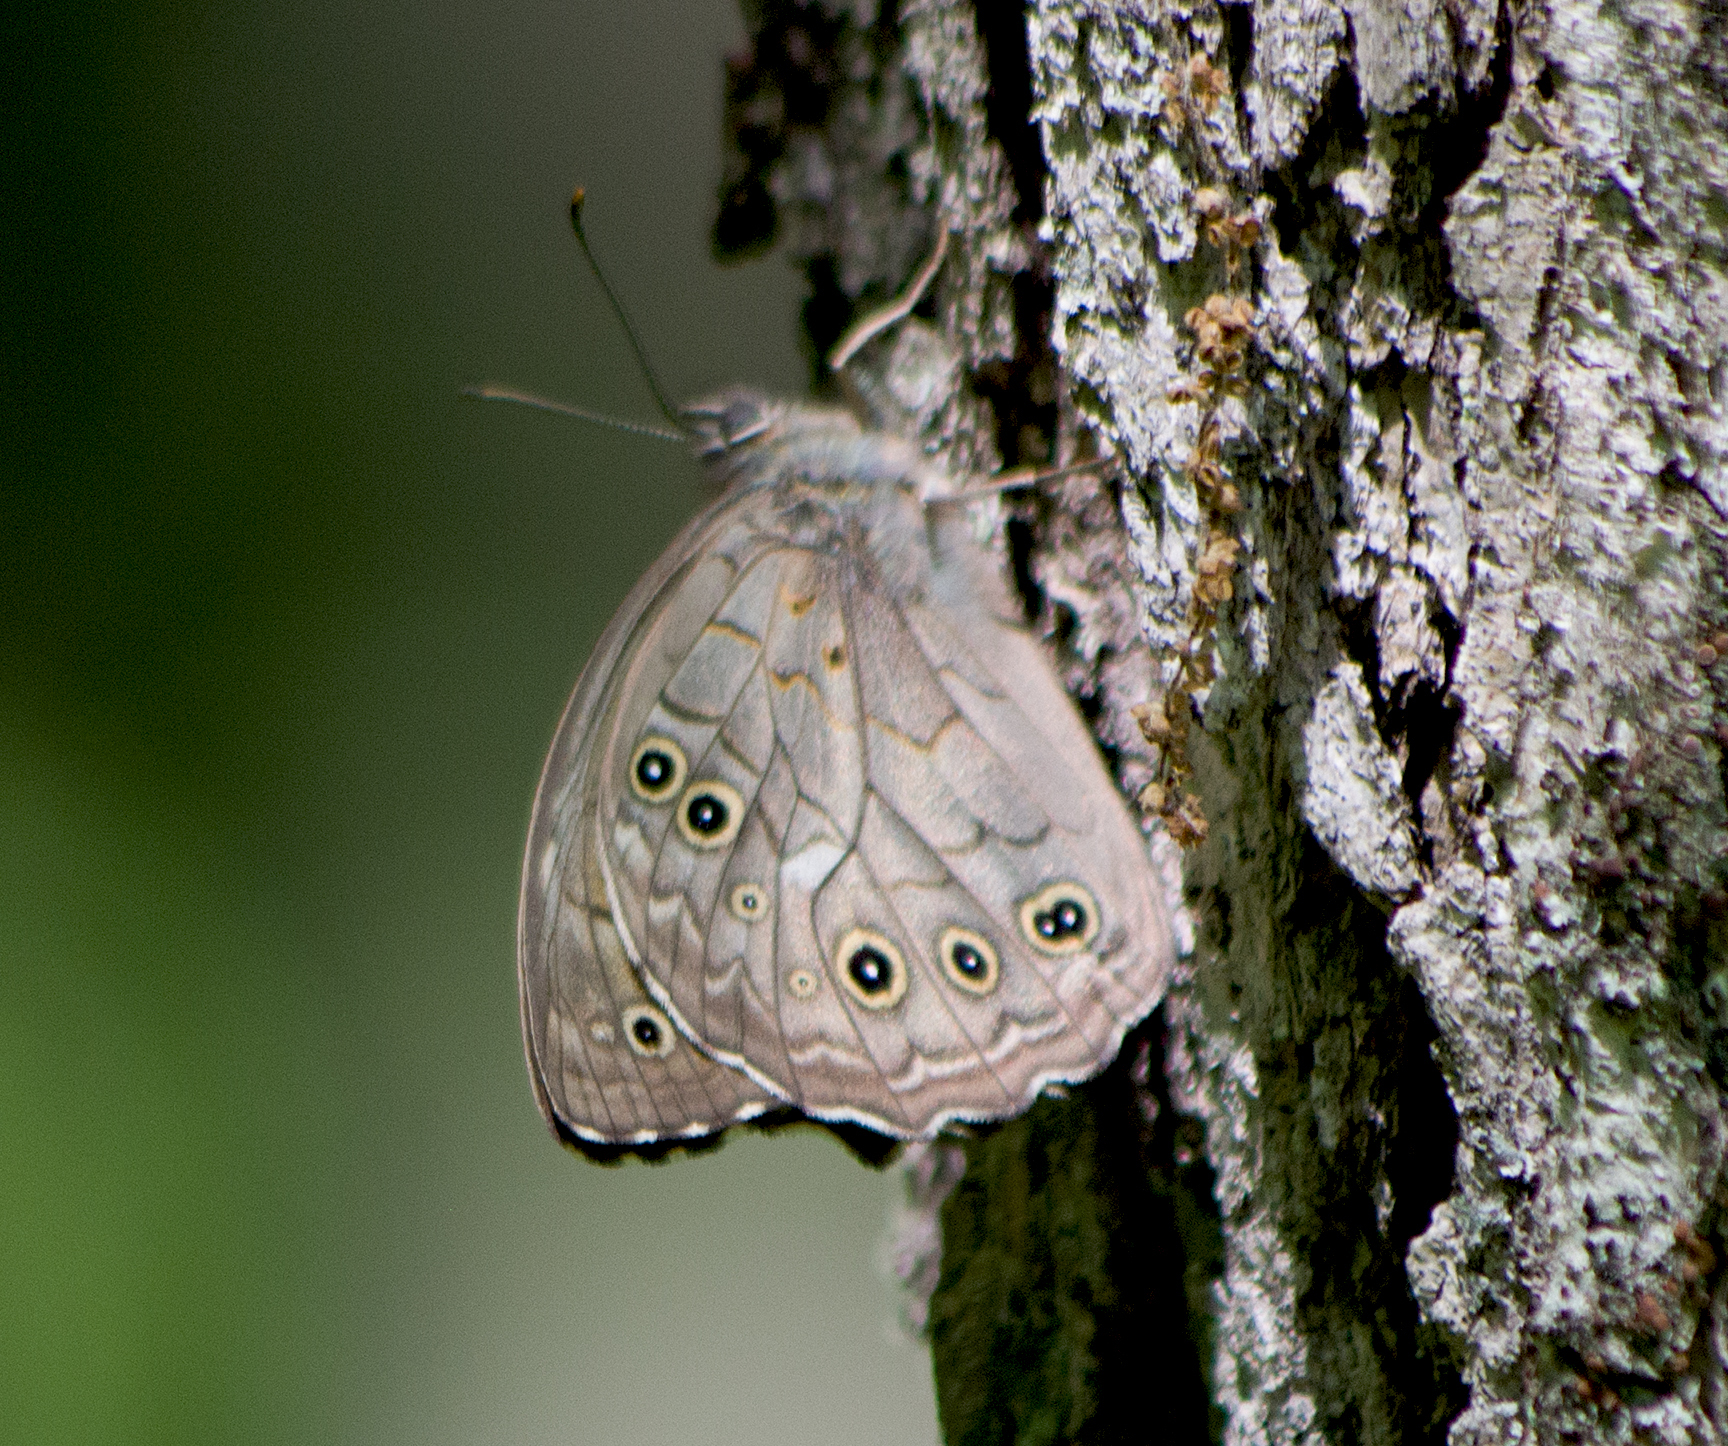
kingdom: Animalia
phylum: Arthropoda
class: Insecta
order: Lepidoptera
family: Nymphalidae
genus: Kirinia
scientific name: Kirinia roxelana
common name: Lattice brown
